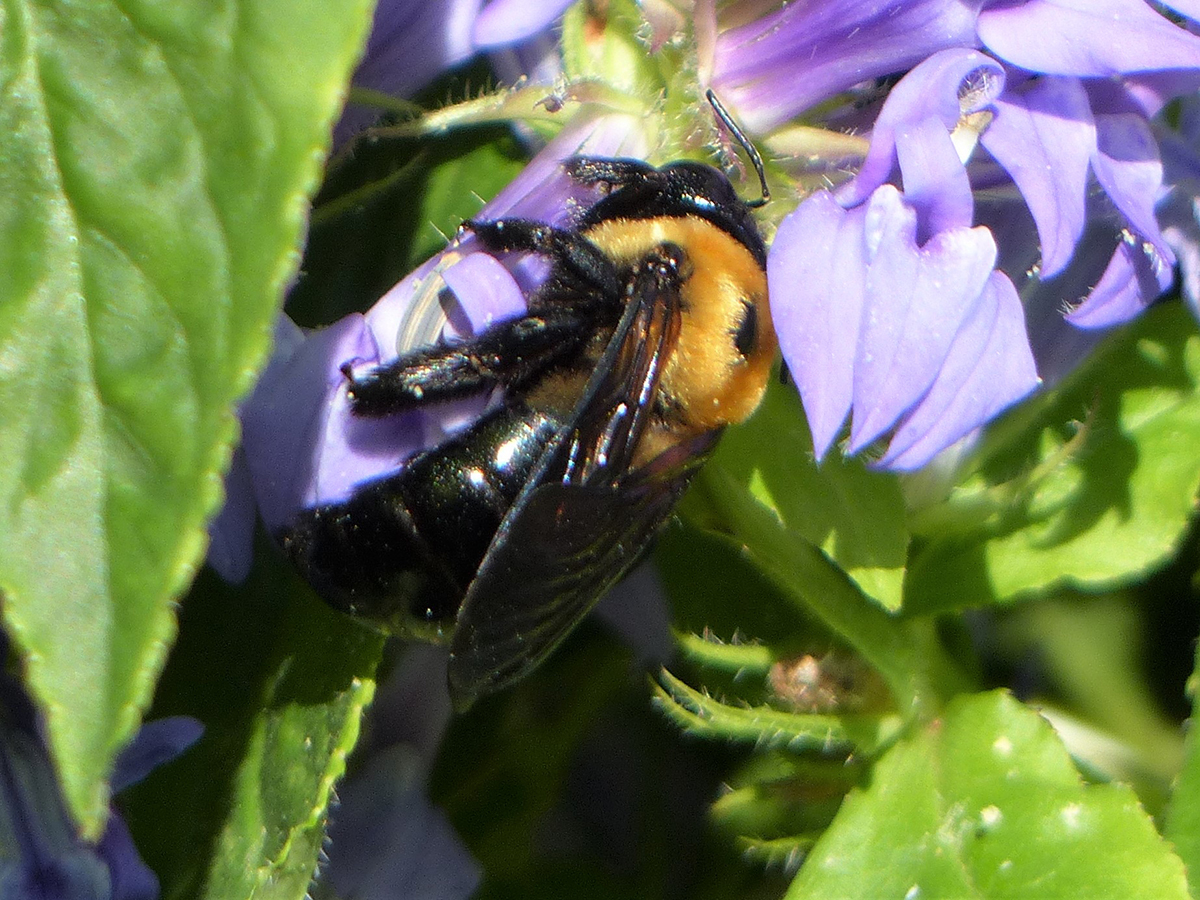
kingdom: Animalia
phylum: Arthropoda
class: Insecta
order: Hymenoptera
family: Apidae
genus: Xylocopa
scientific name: Xylocopa virginica
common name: Carpenter bee
